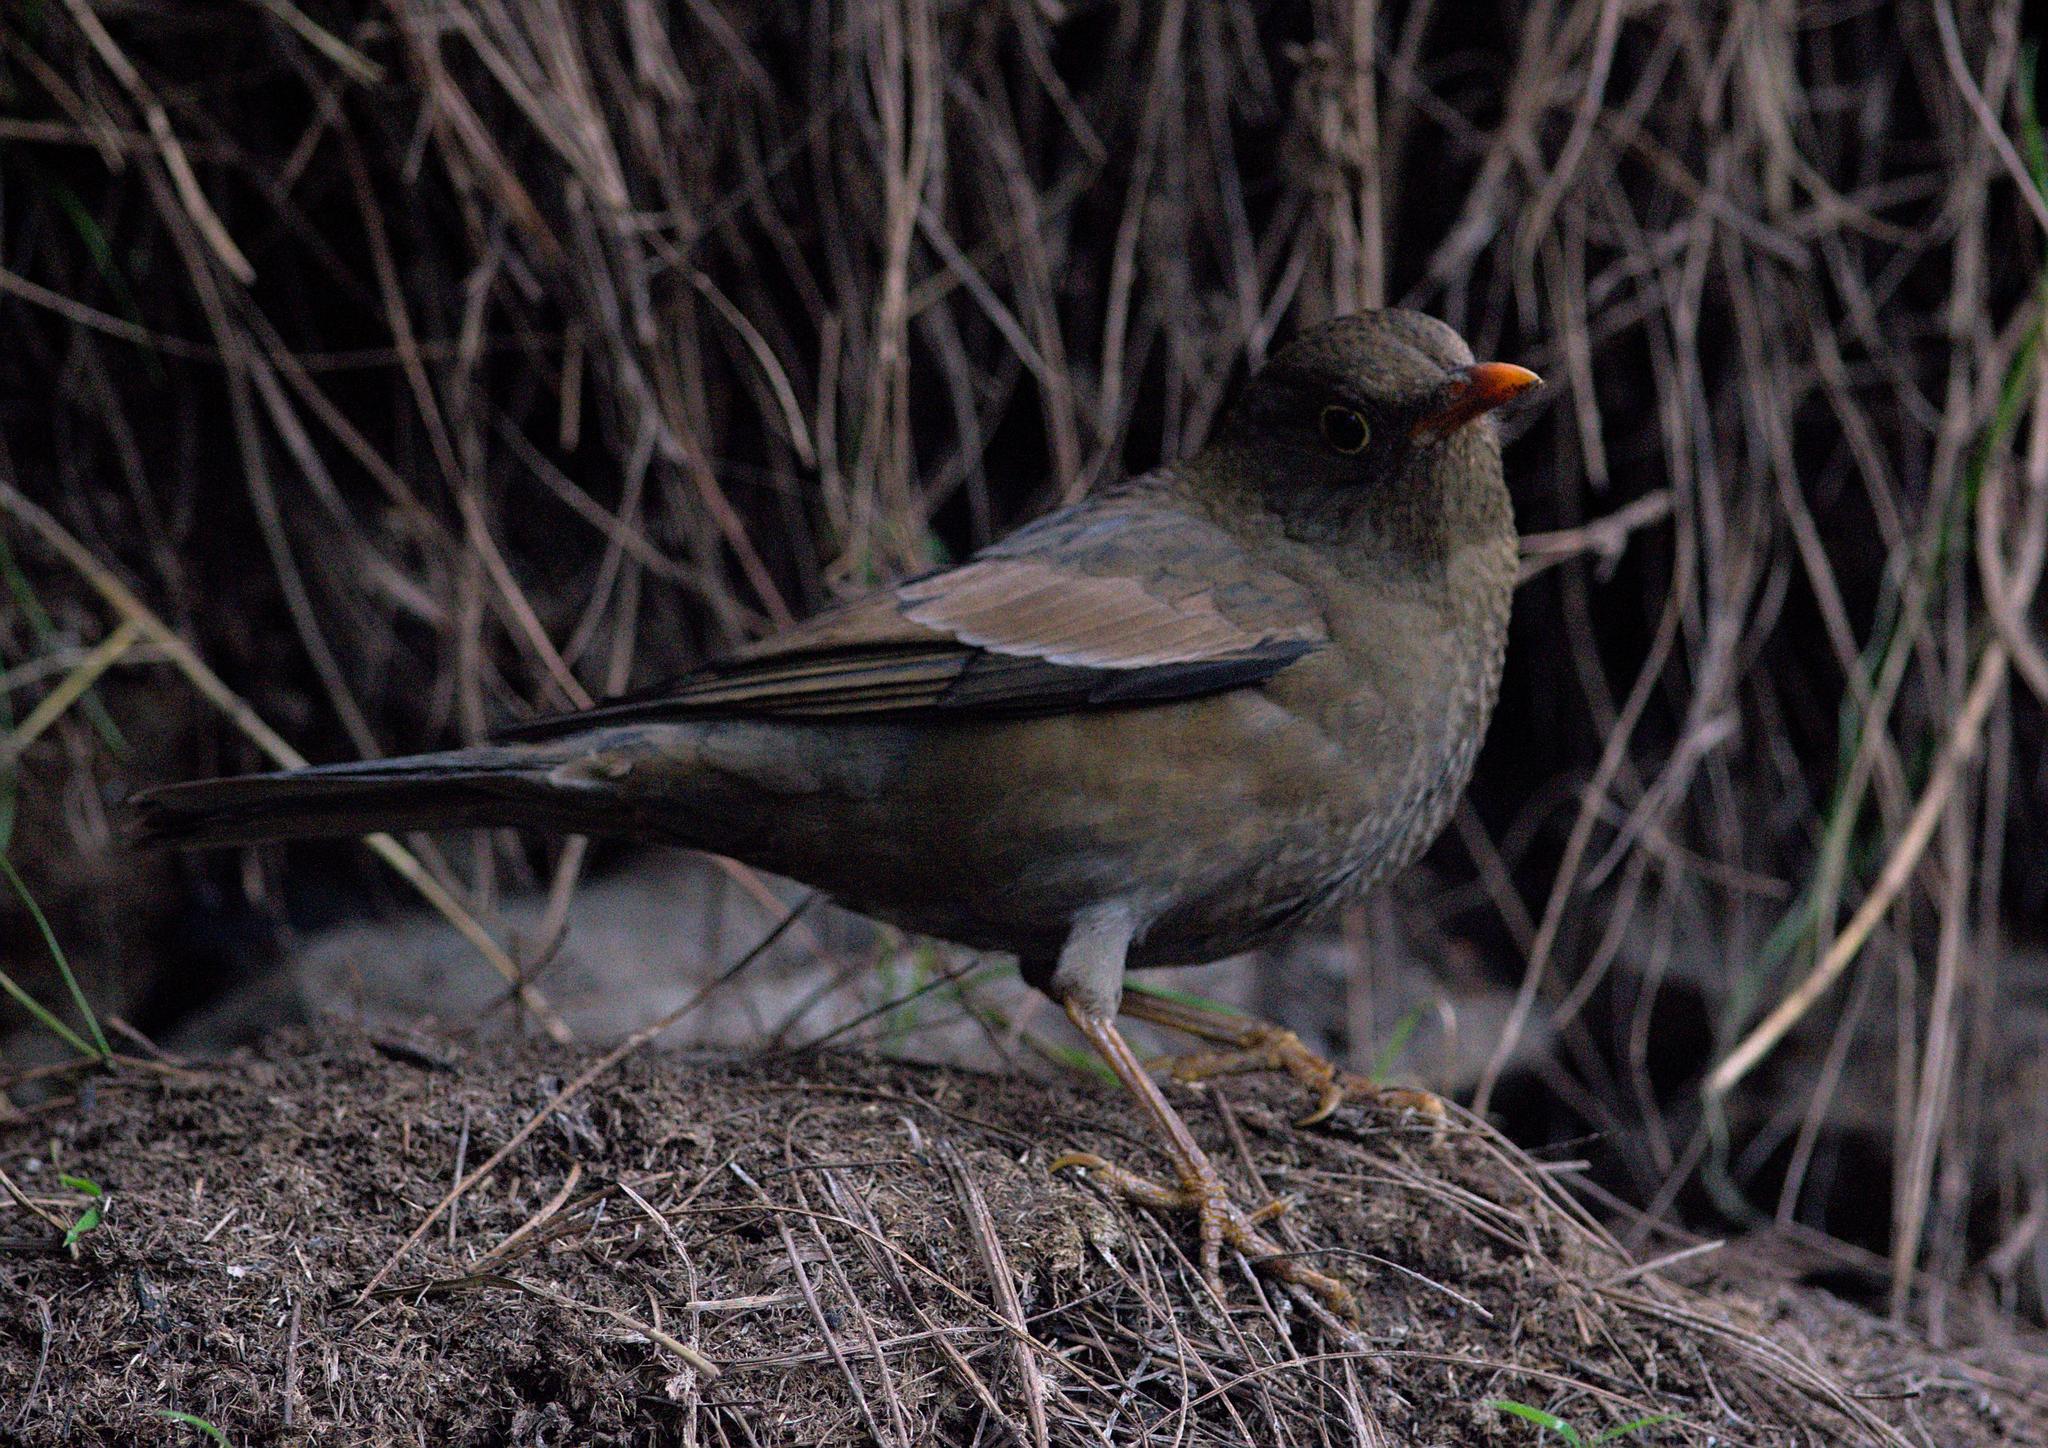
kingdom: Animalia
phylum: Chordata
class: Aves
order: Passeriformes
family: Turdidae
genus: Turdus
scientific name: Turdus boulboul
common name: Grey-winged blackbird
